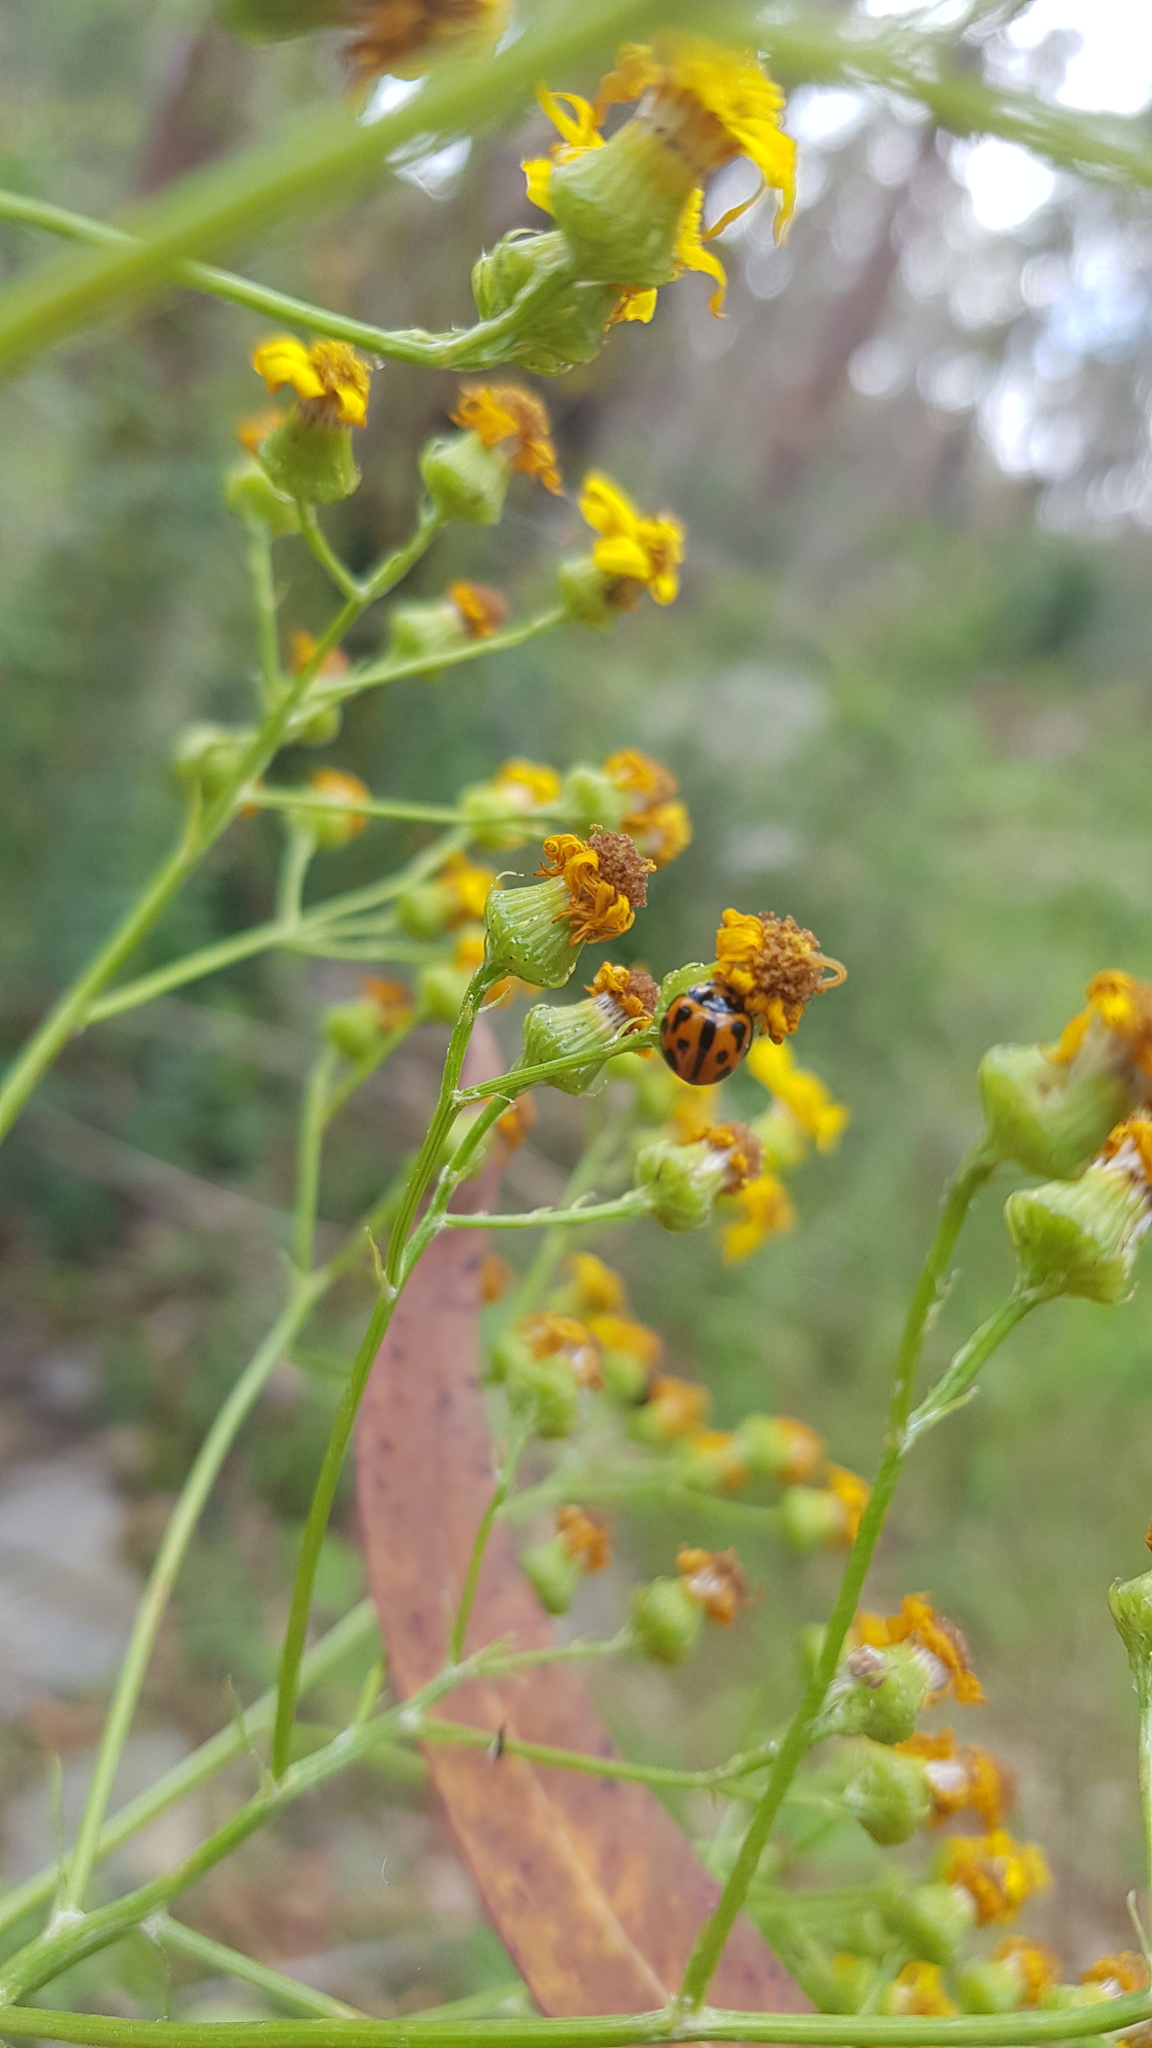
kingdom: Animalia
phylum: Arthropoda
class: Insecta
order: Coleoptera
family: Coccinellidae
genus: Coelophora
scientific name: Coelophora inaequalis
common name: Common australian lady beetle
